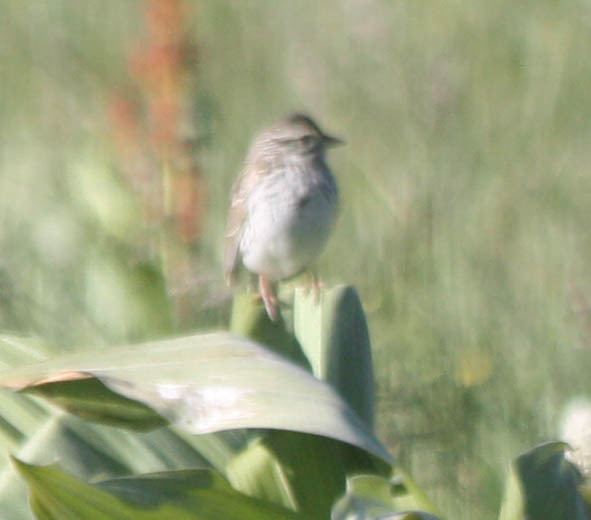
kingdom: Animalia
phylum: Chordata
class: Aves
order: Passeriformes
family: Passerellidae
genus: Passerculus
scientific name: Passerculus sandwichensis
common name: Savannah sparrow
